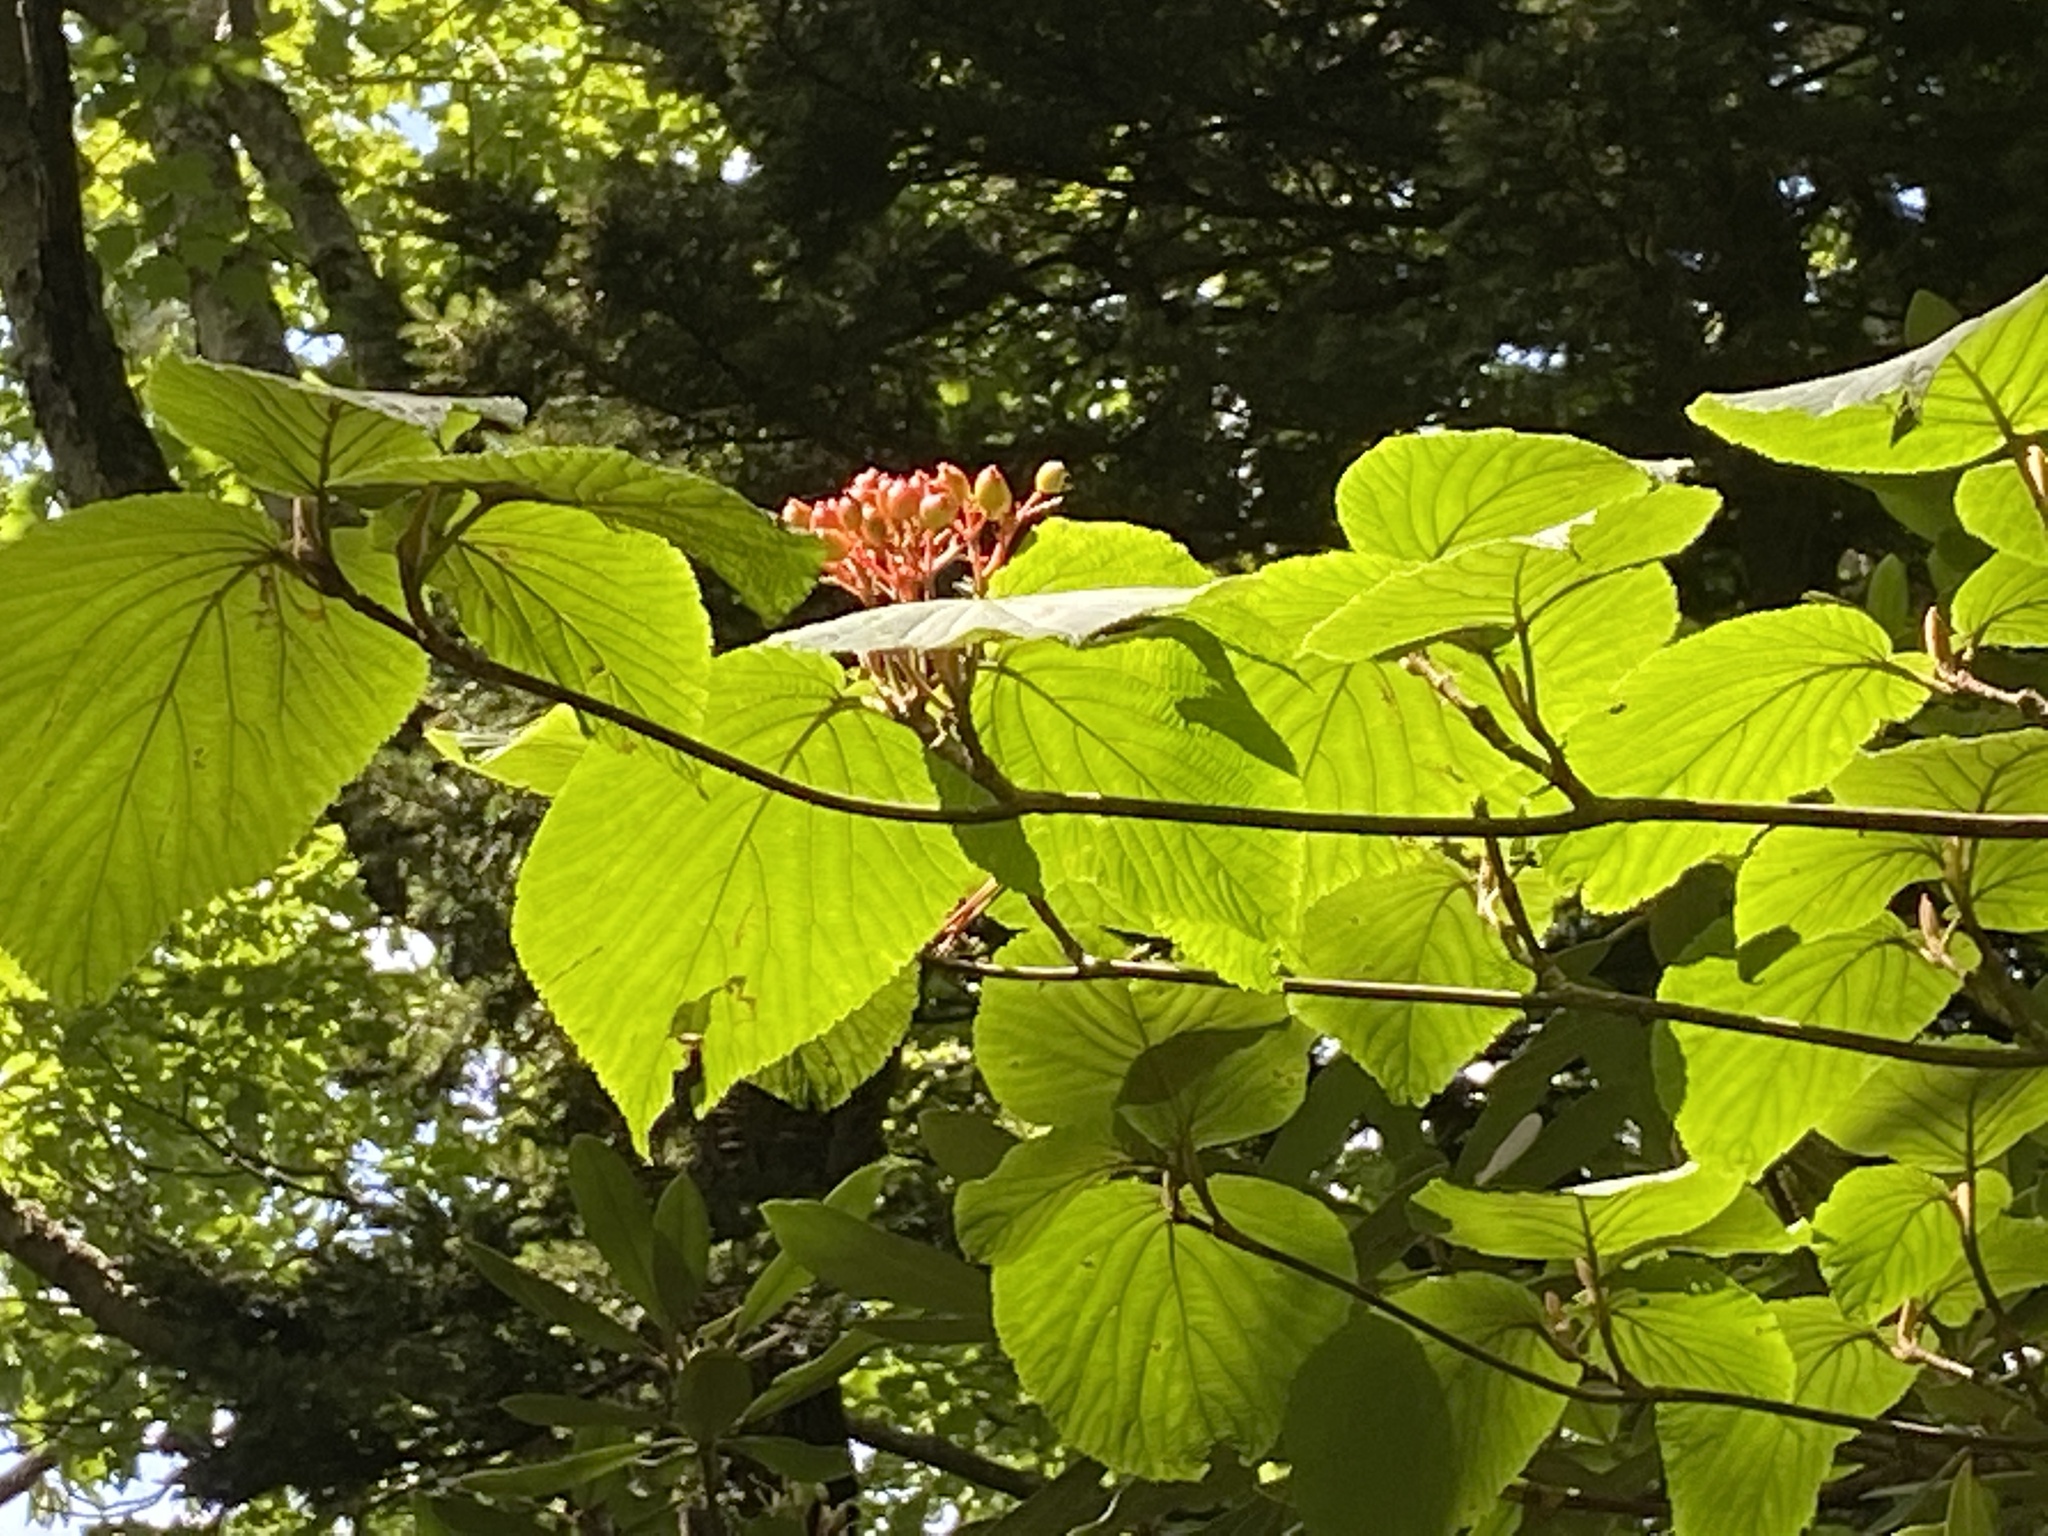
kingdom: Plantae
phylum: Tracheophyta
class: Magnoliopsida
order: Dipsacales
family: Viburnaceae
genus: Viburnum
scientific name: Viburnum lantanoides
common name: Hobblebush
